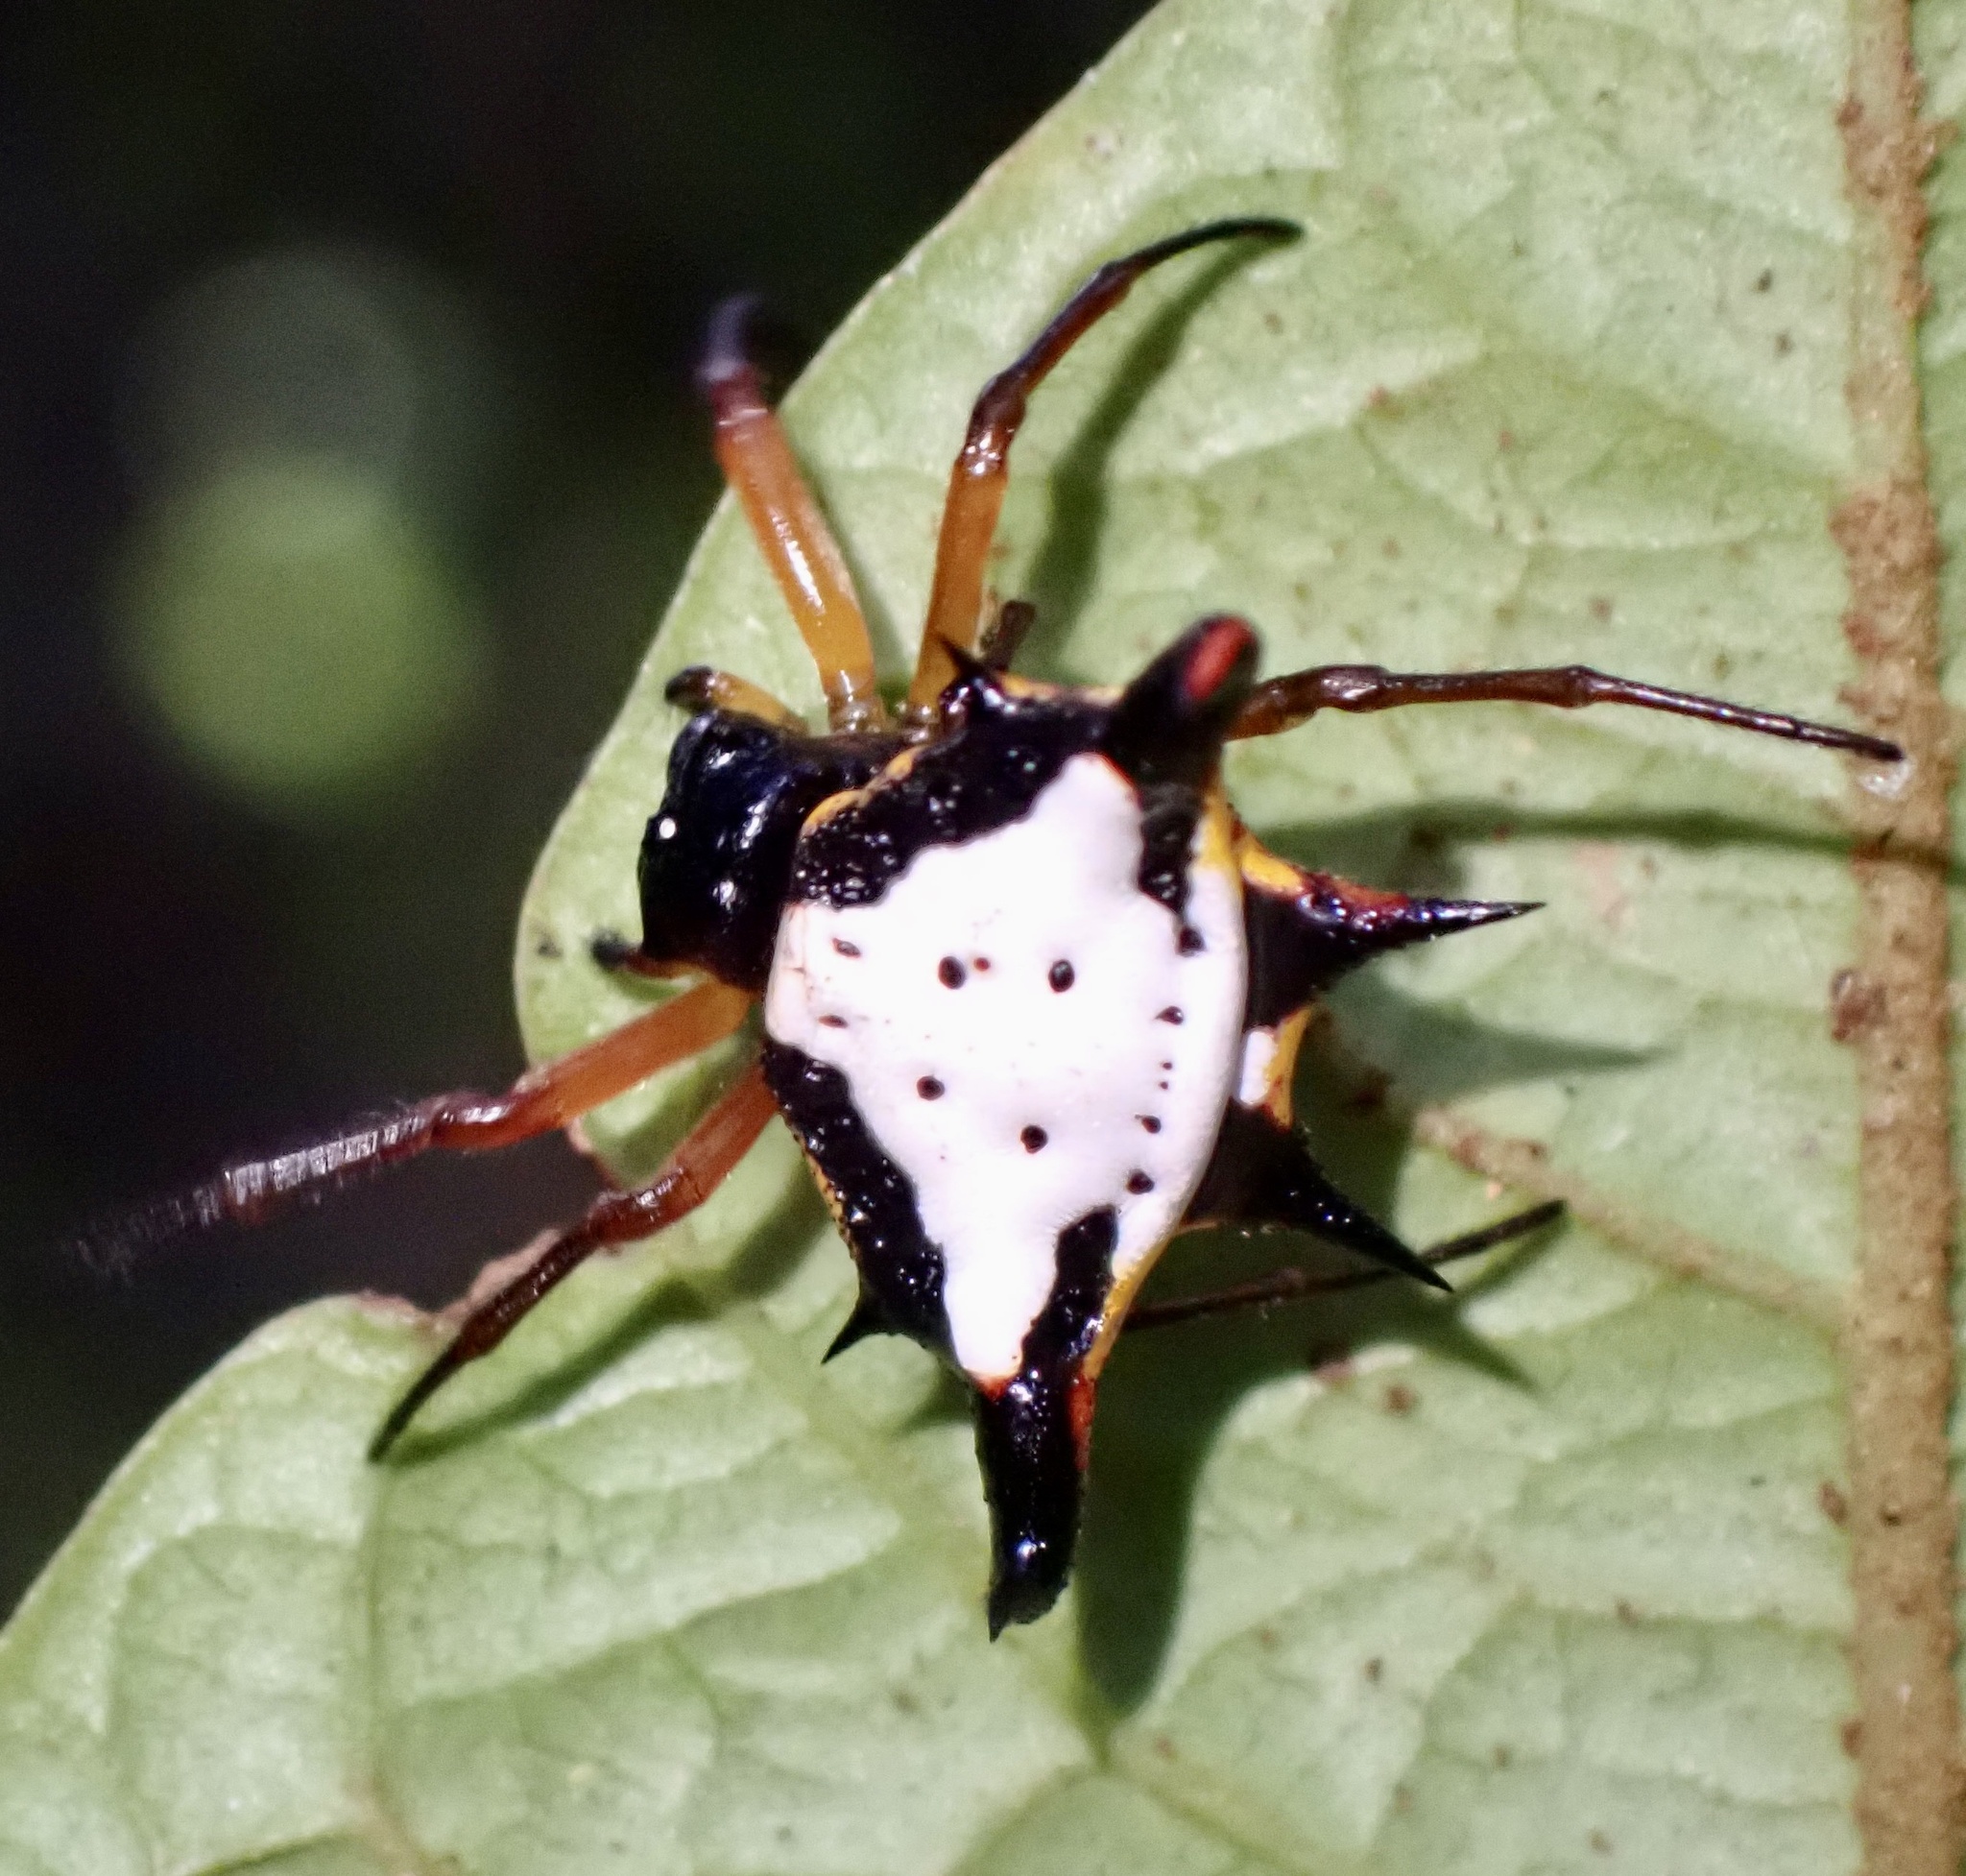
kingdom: Animalia
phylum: Arthropoda
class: Arachnida
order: Araneae
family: Araneidae
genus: Gasteracantha
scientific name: Gasteracantha crucigera
